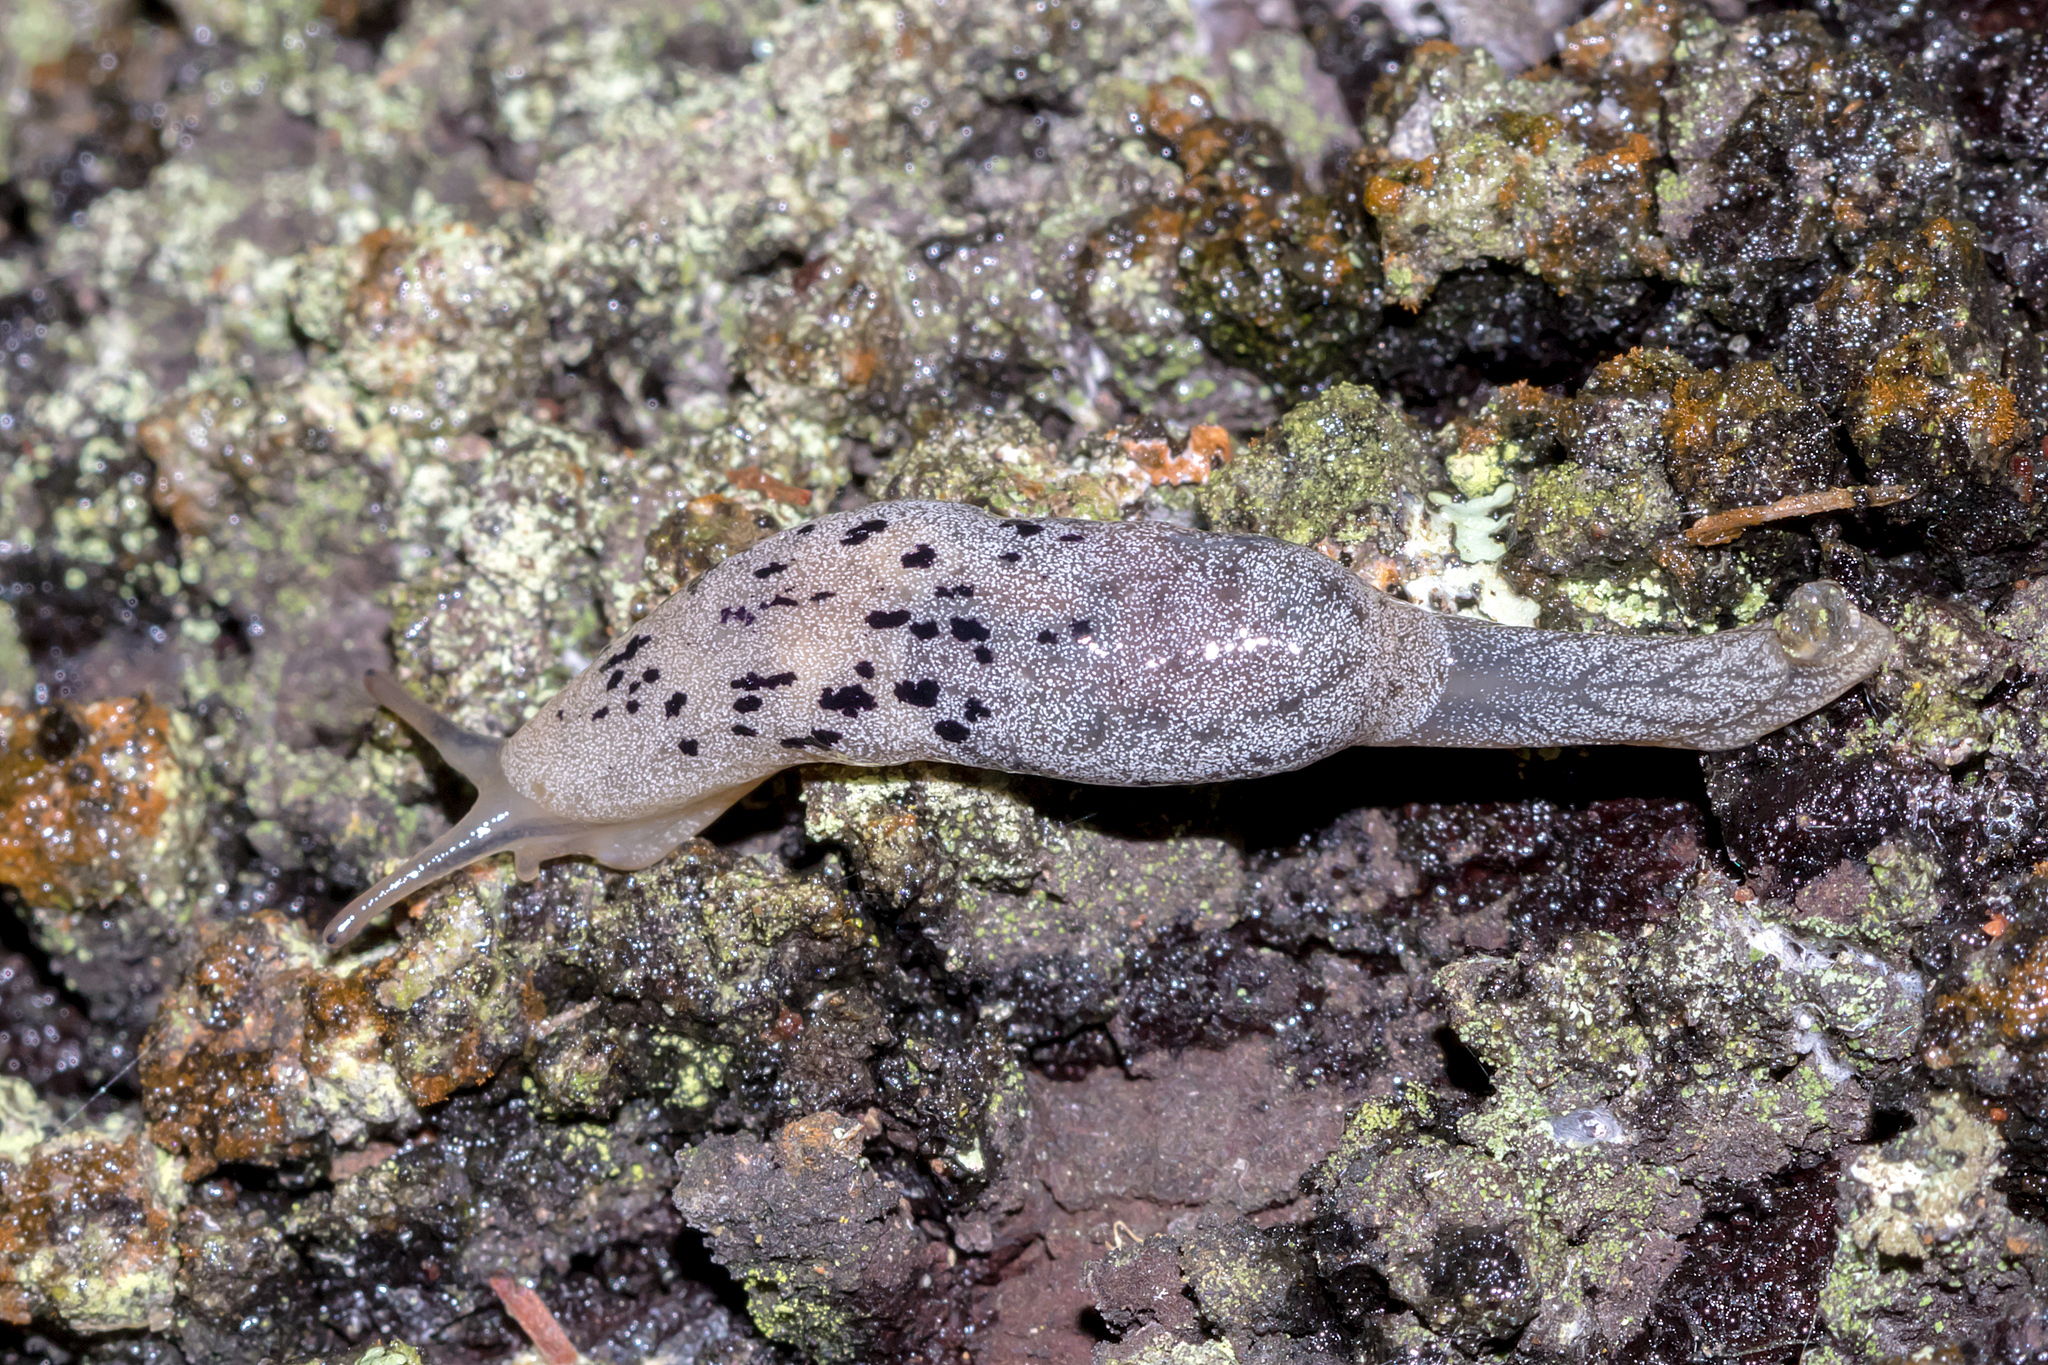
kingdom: Animalia
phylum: Mollusca
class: Gastropoda
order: Stylommatophora
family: Cystopeltidae
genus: Cystopelta
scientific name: Cystopelta purpurea
